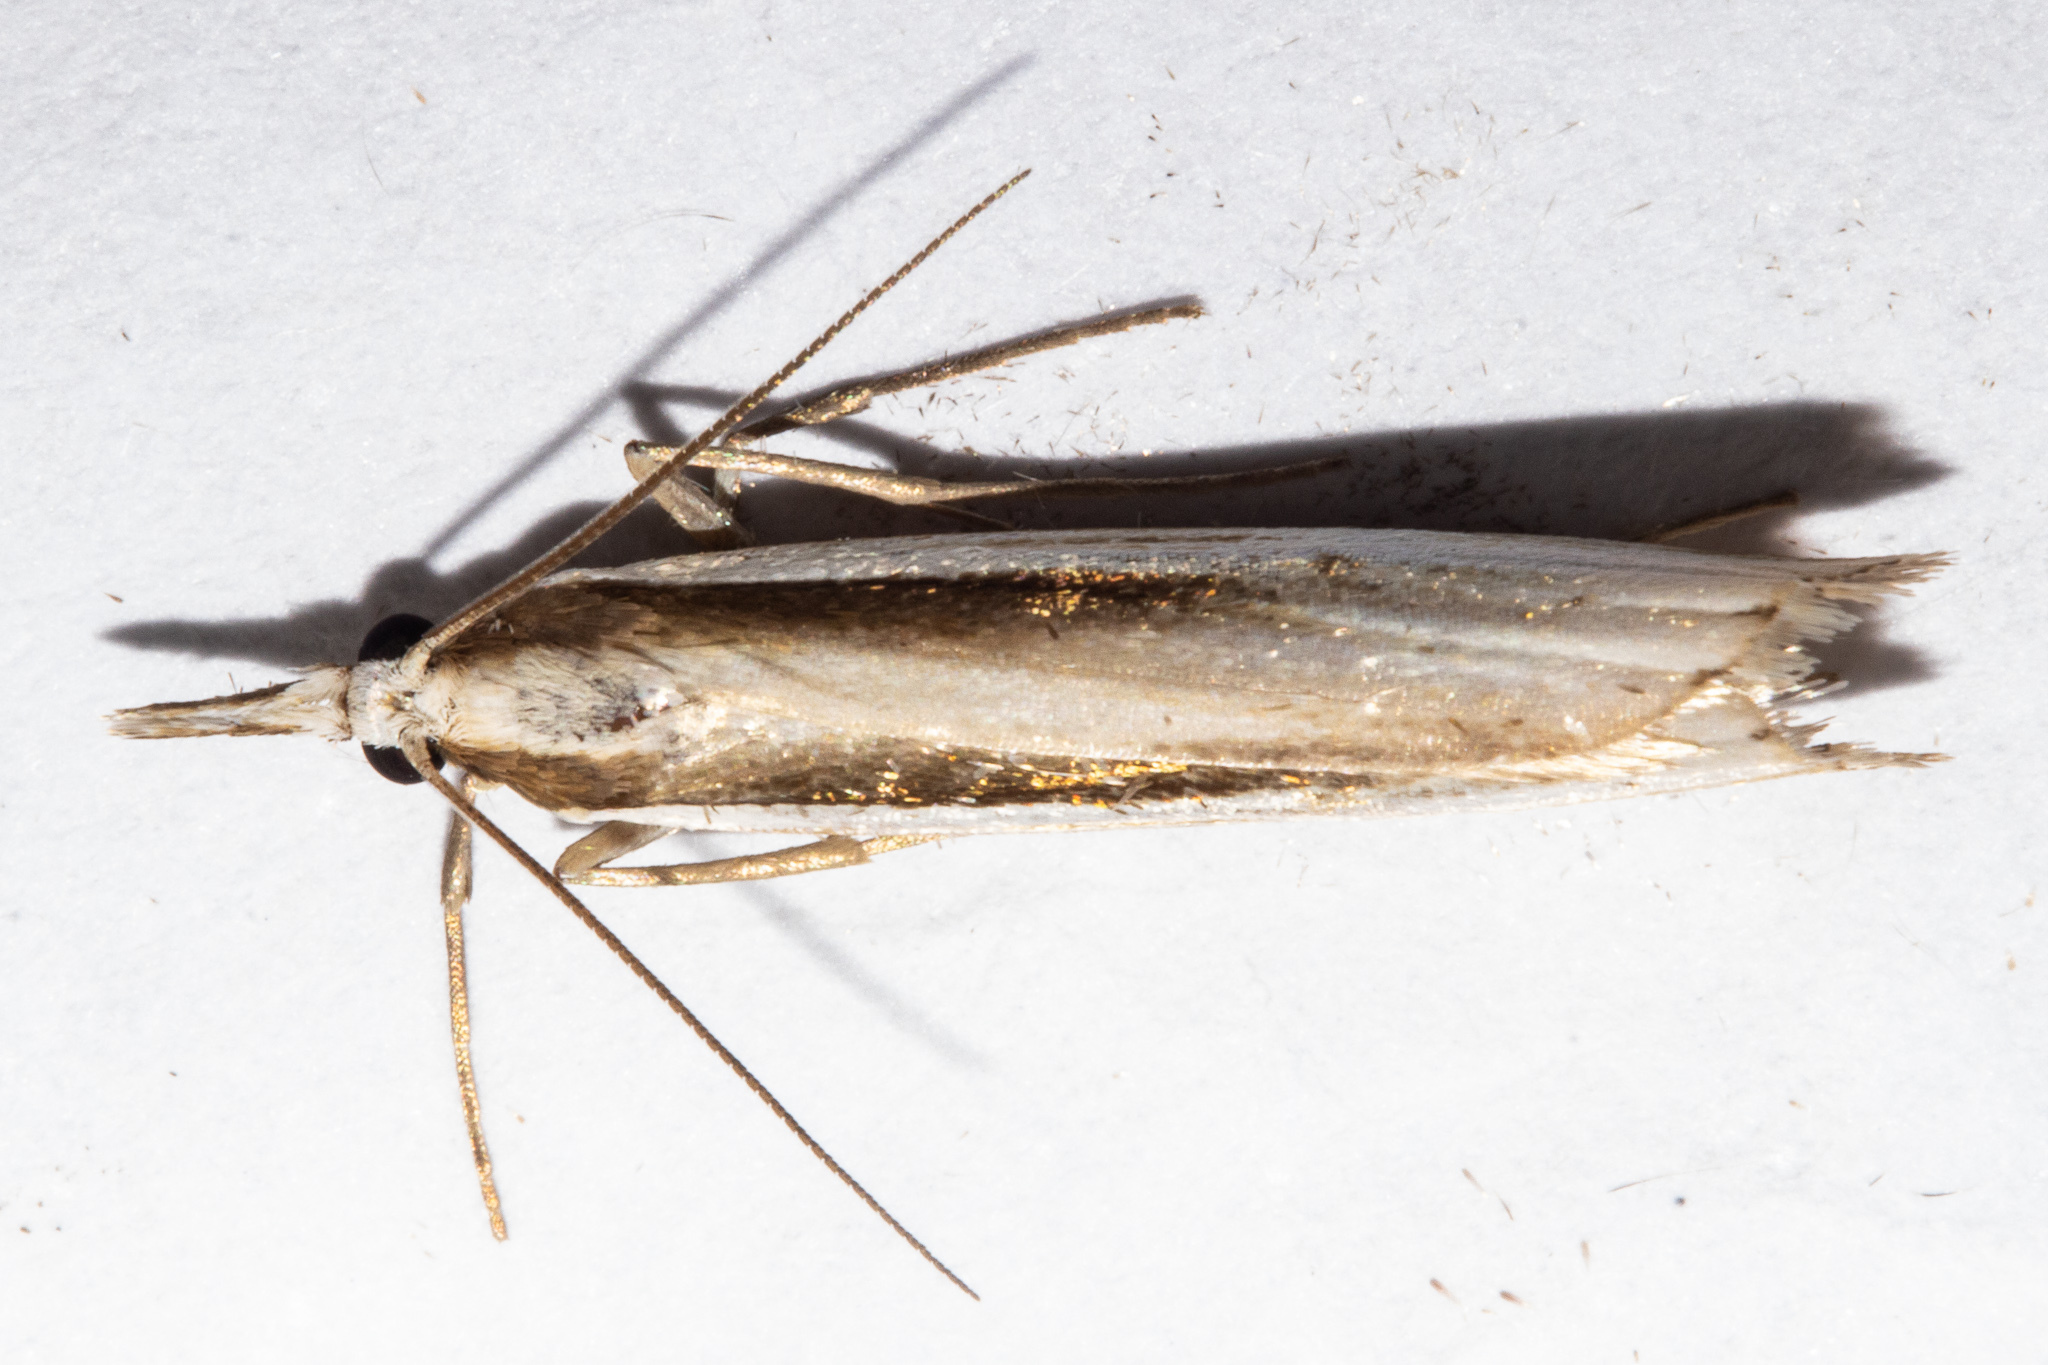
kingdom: Animalia
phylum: Arthropoda
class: Insecta
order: Lepidoptera
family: Crambidae
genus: Orocrambus
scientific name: Orocrambus ramosellus
